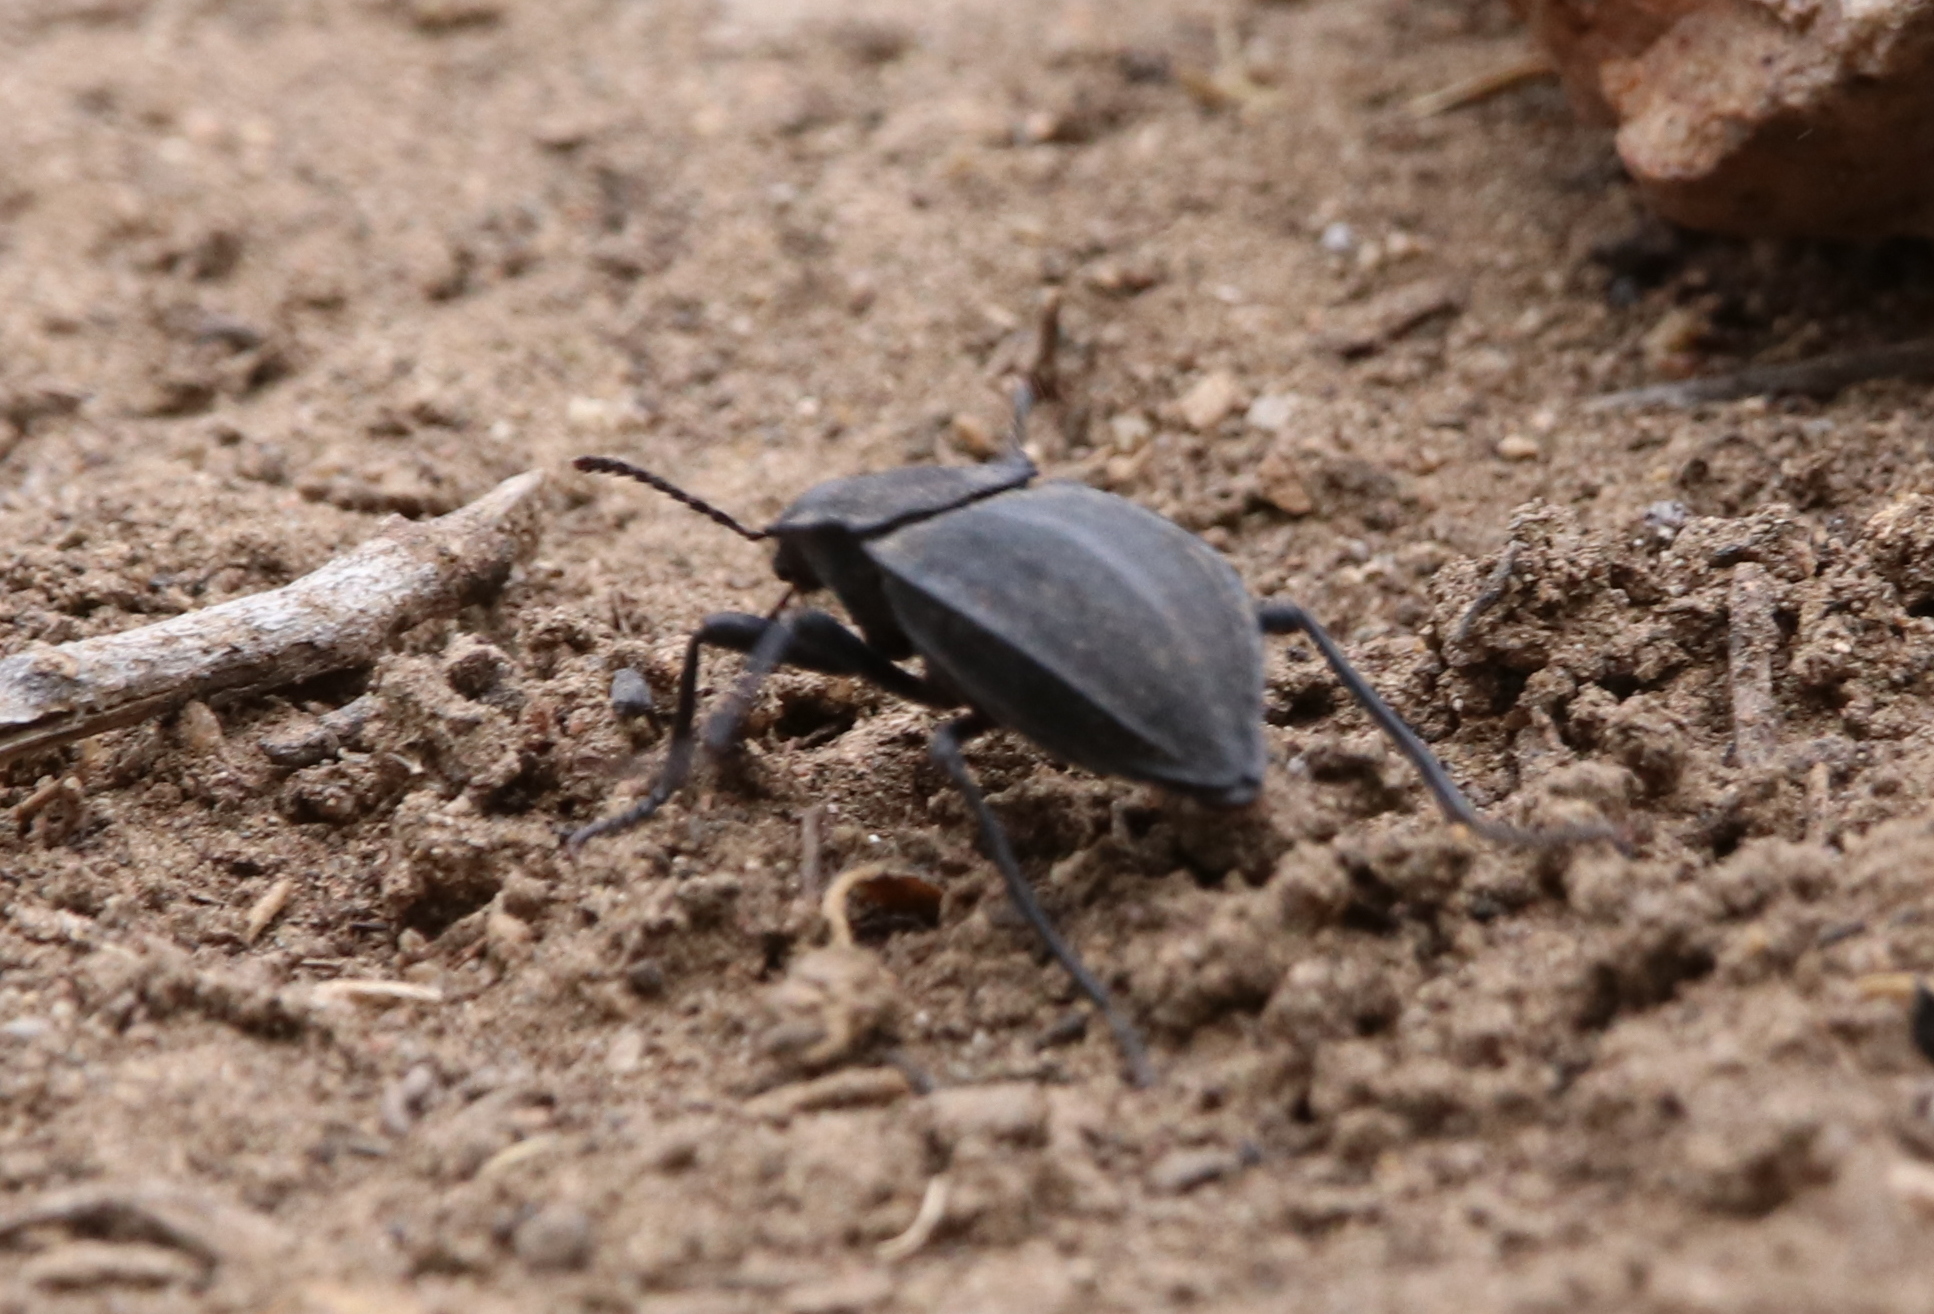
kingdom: Animalia
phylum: Arthropoda
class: Insecta
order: Coleoptera
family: Tenebrionidae
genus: Stenomorpha
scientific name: Stenomorpha opaca
